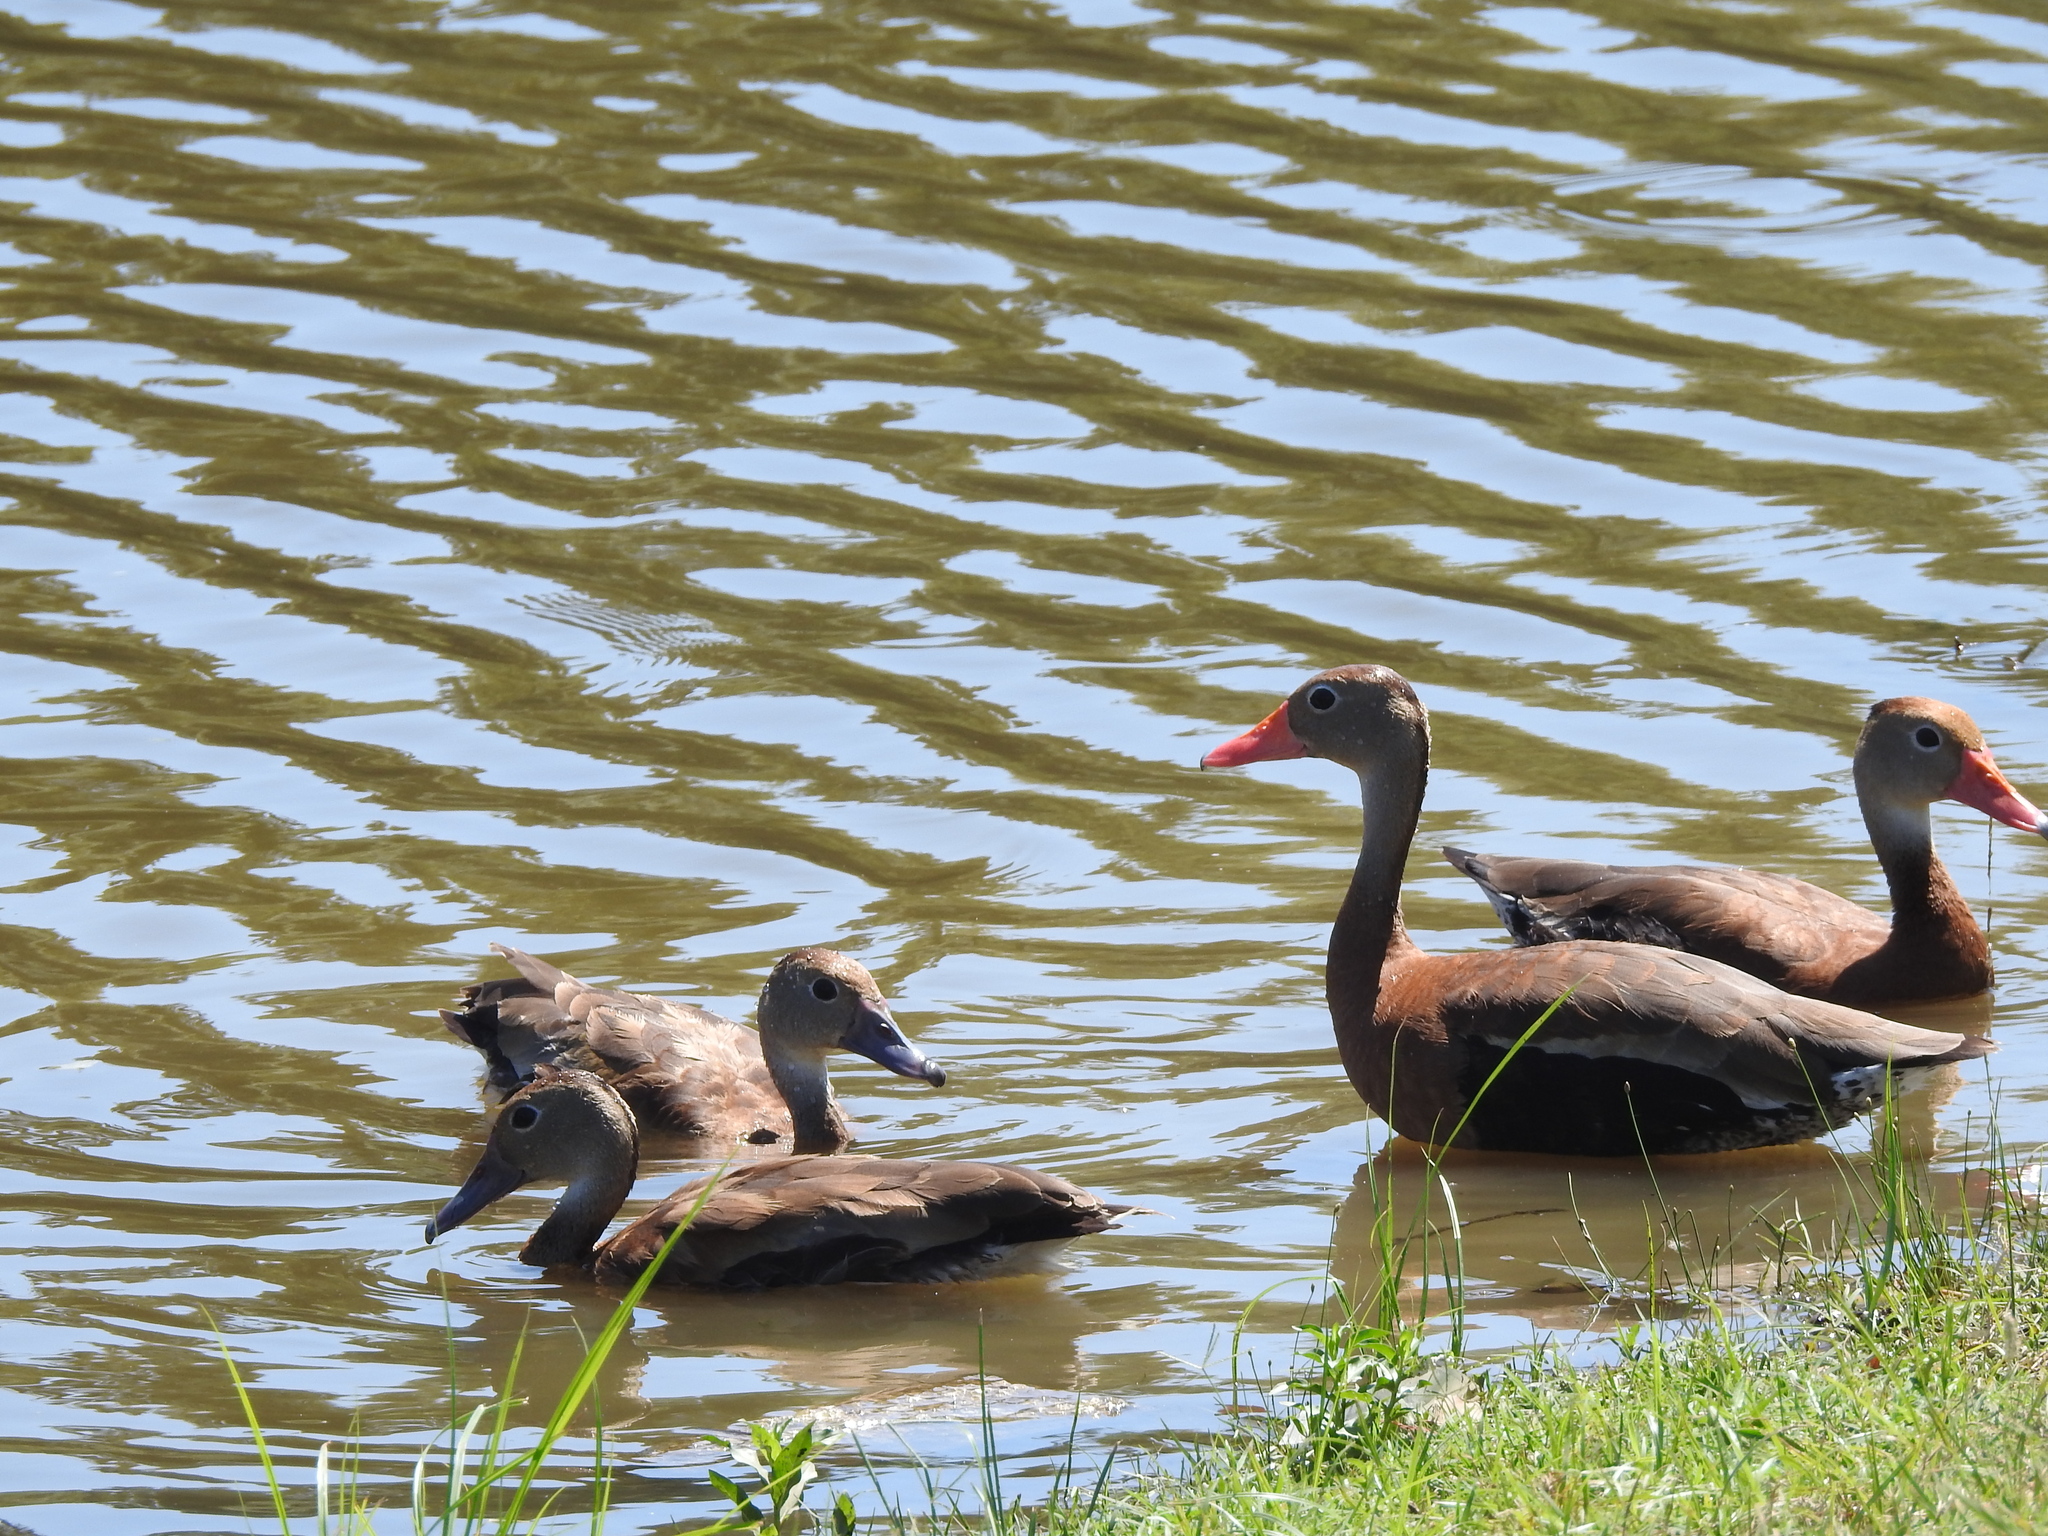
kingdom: Animalia
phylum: Chordata
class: Aves
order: Anseriformes
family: Anatidae
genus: Dendrocygna
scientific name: Dendrocygna autumnalis
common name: Black-bellied whistling duck
